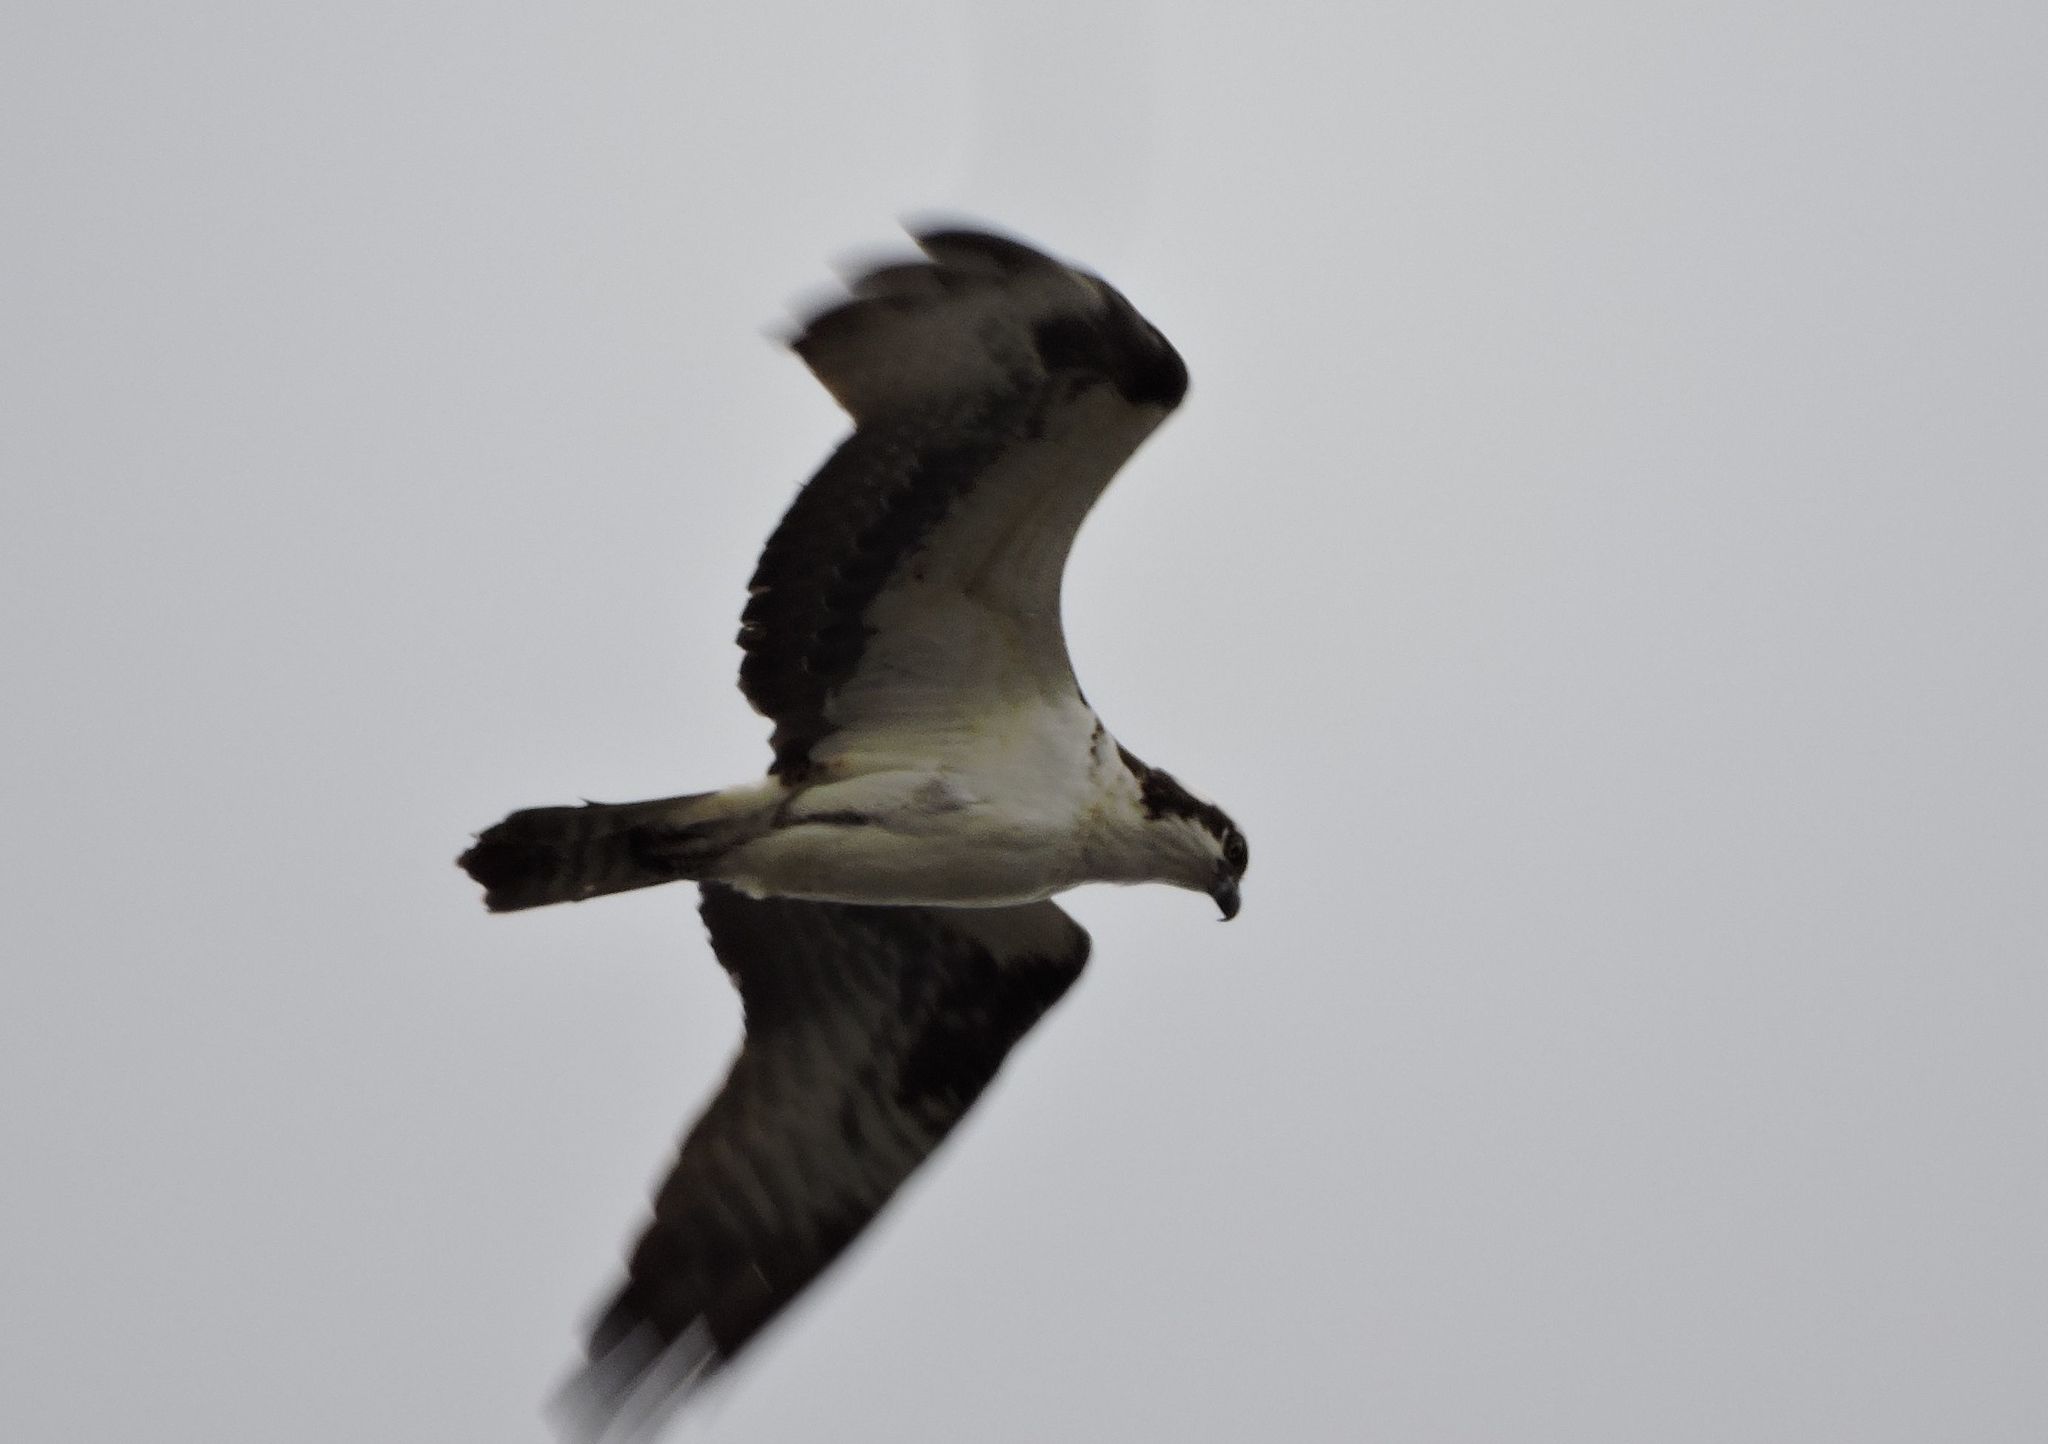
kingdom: Animalia
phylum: Chordata
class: Aves
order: Accipitriformes
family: Pandionidae
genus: Pandion
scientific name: Pandion haliaetus
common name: Osprey
